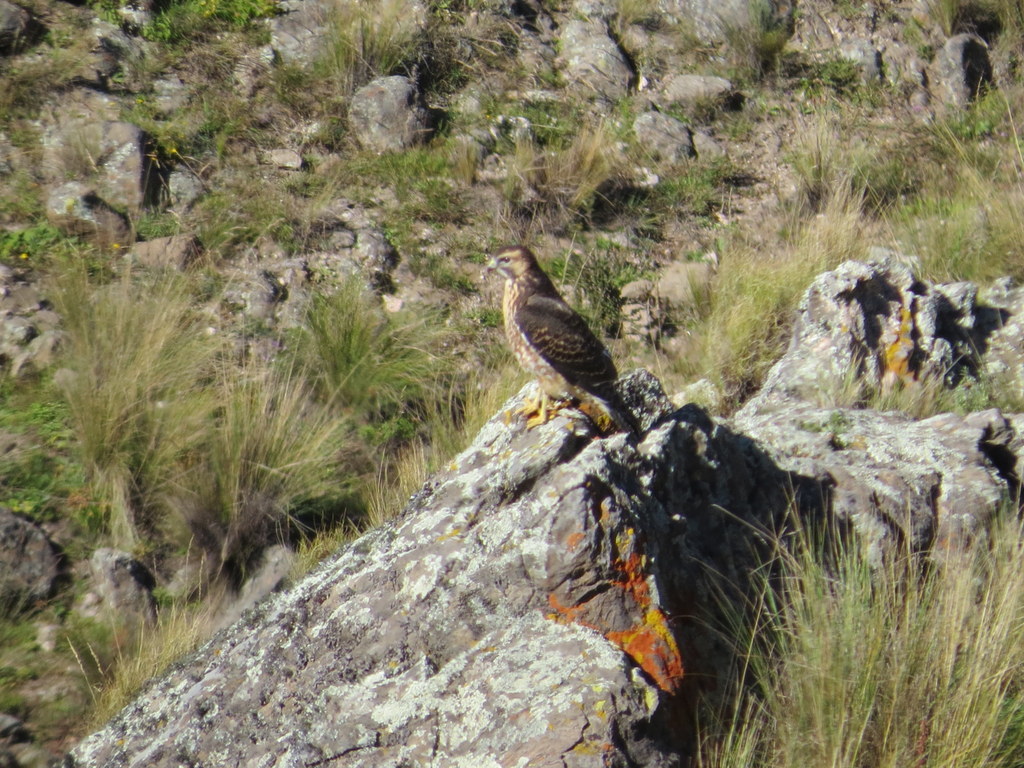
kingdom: Animalia
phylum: Chordata
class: Aves
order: Accipitriformes
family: Accipitridae
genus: Buteo
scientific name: Buteo polyosoma
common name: Variable hawk
